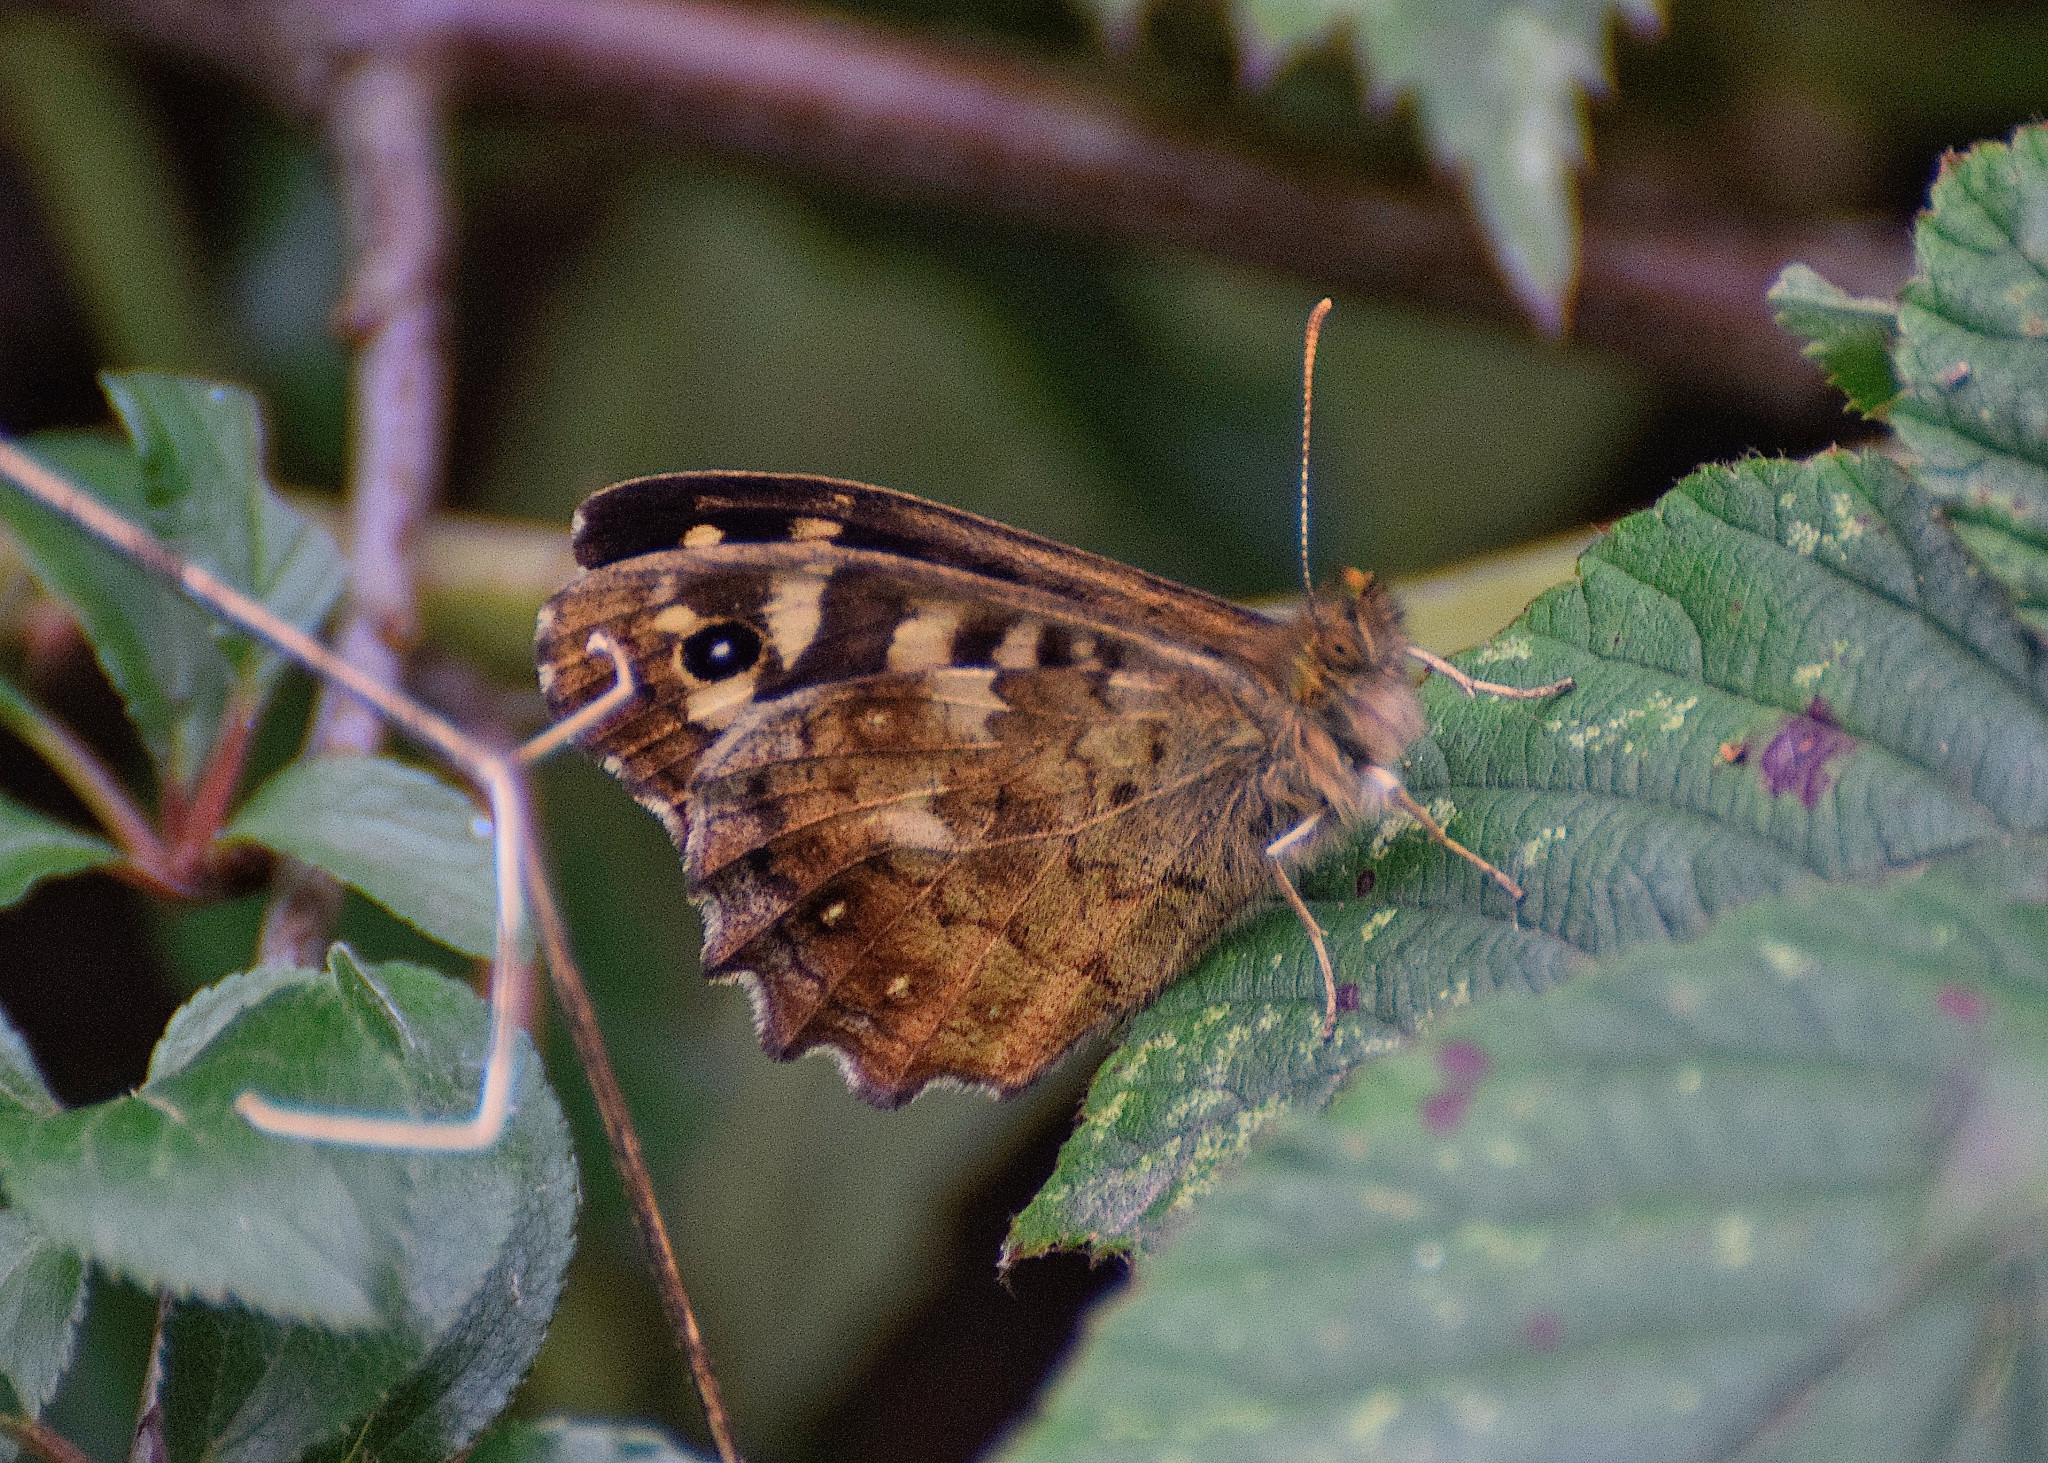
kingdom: Animalia
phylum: Arthropoda
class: Insecta
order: Lepidoptera
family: Nymphalidae
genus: Pararge
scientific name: Pararge aegeria
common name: Speckled wood
